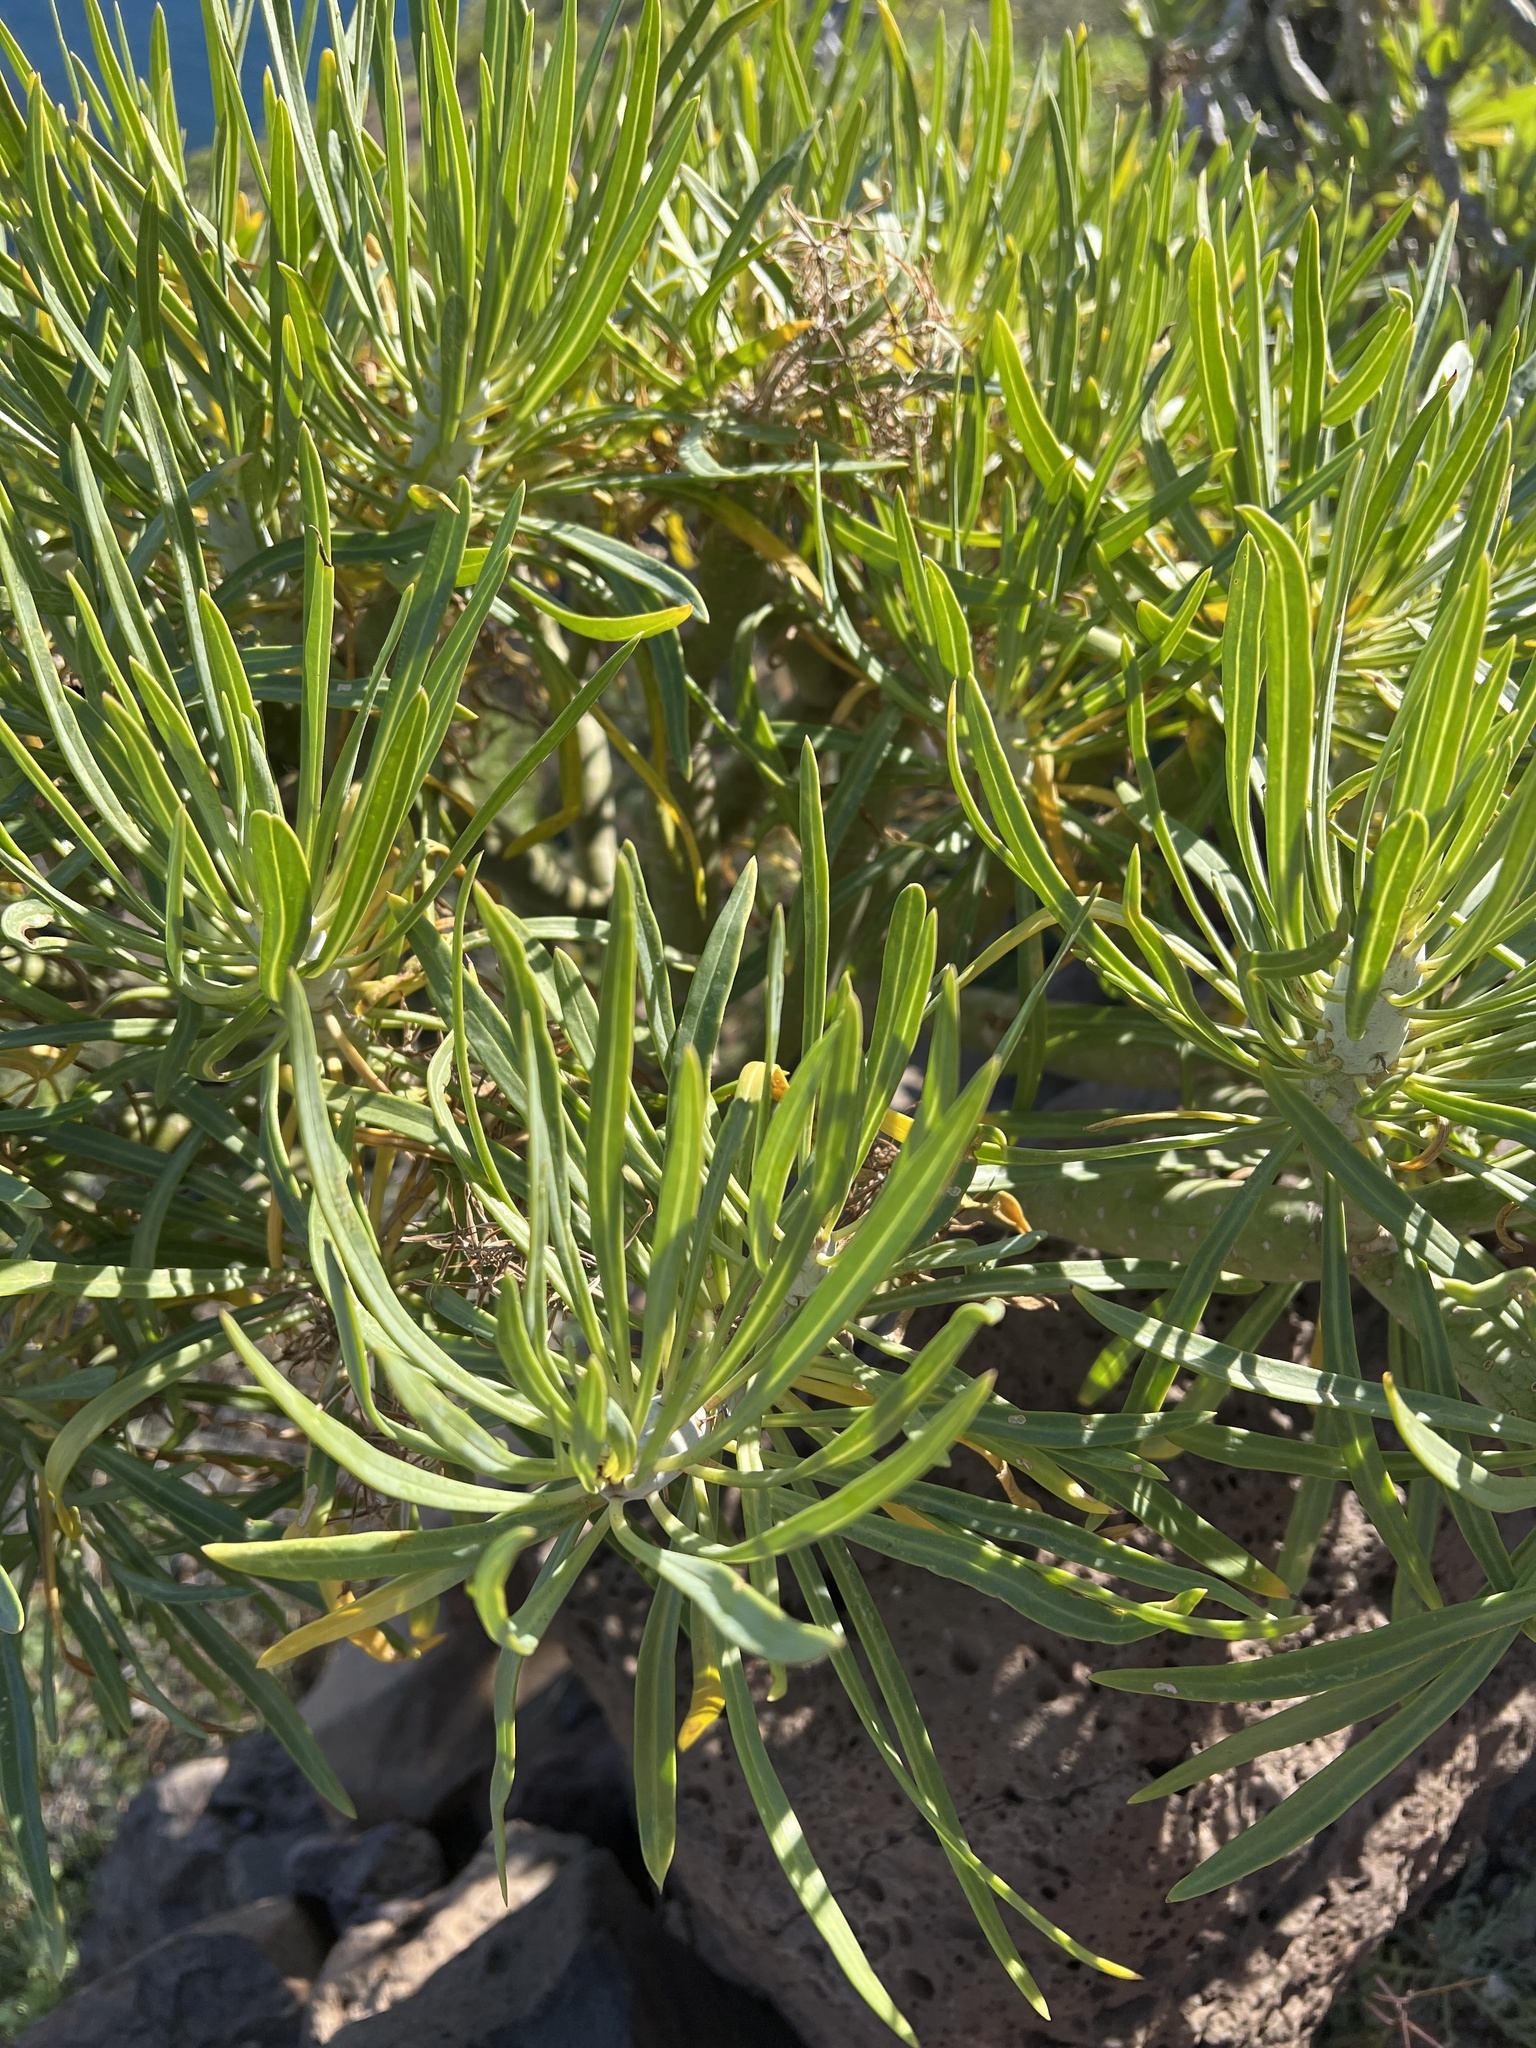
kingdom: Plantae
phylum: Tracheophyta
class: Magnoliopsida
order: Asterales
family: Asteraceae
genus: Kleinia
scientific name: Kleinia neriifolia
